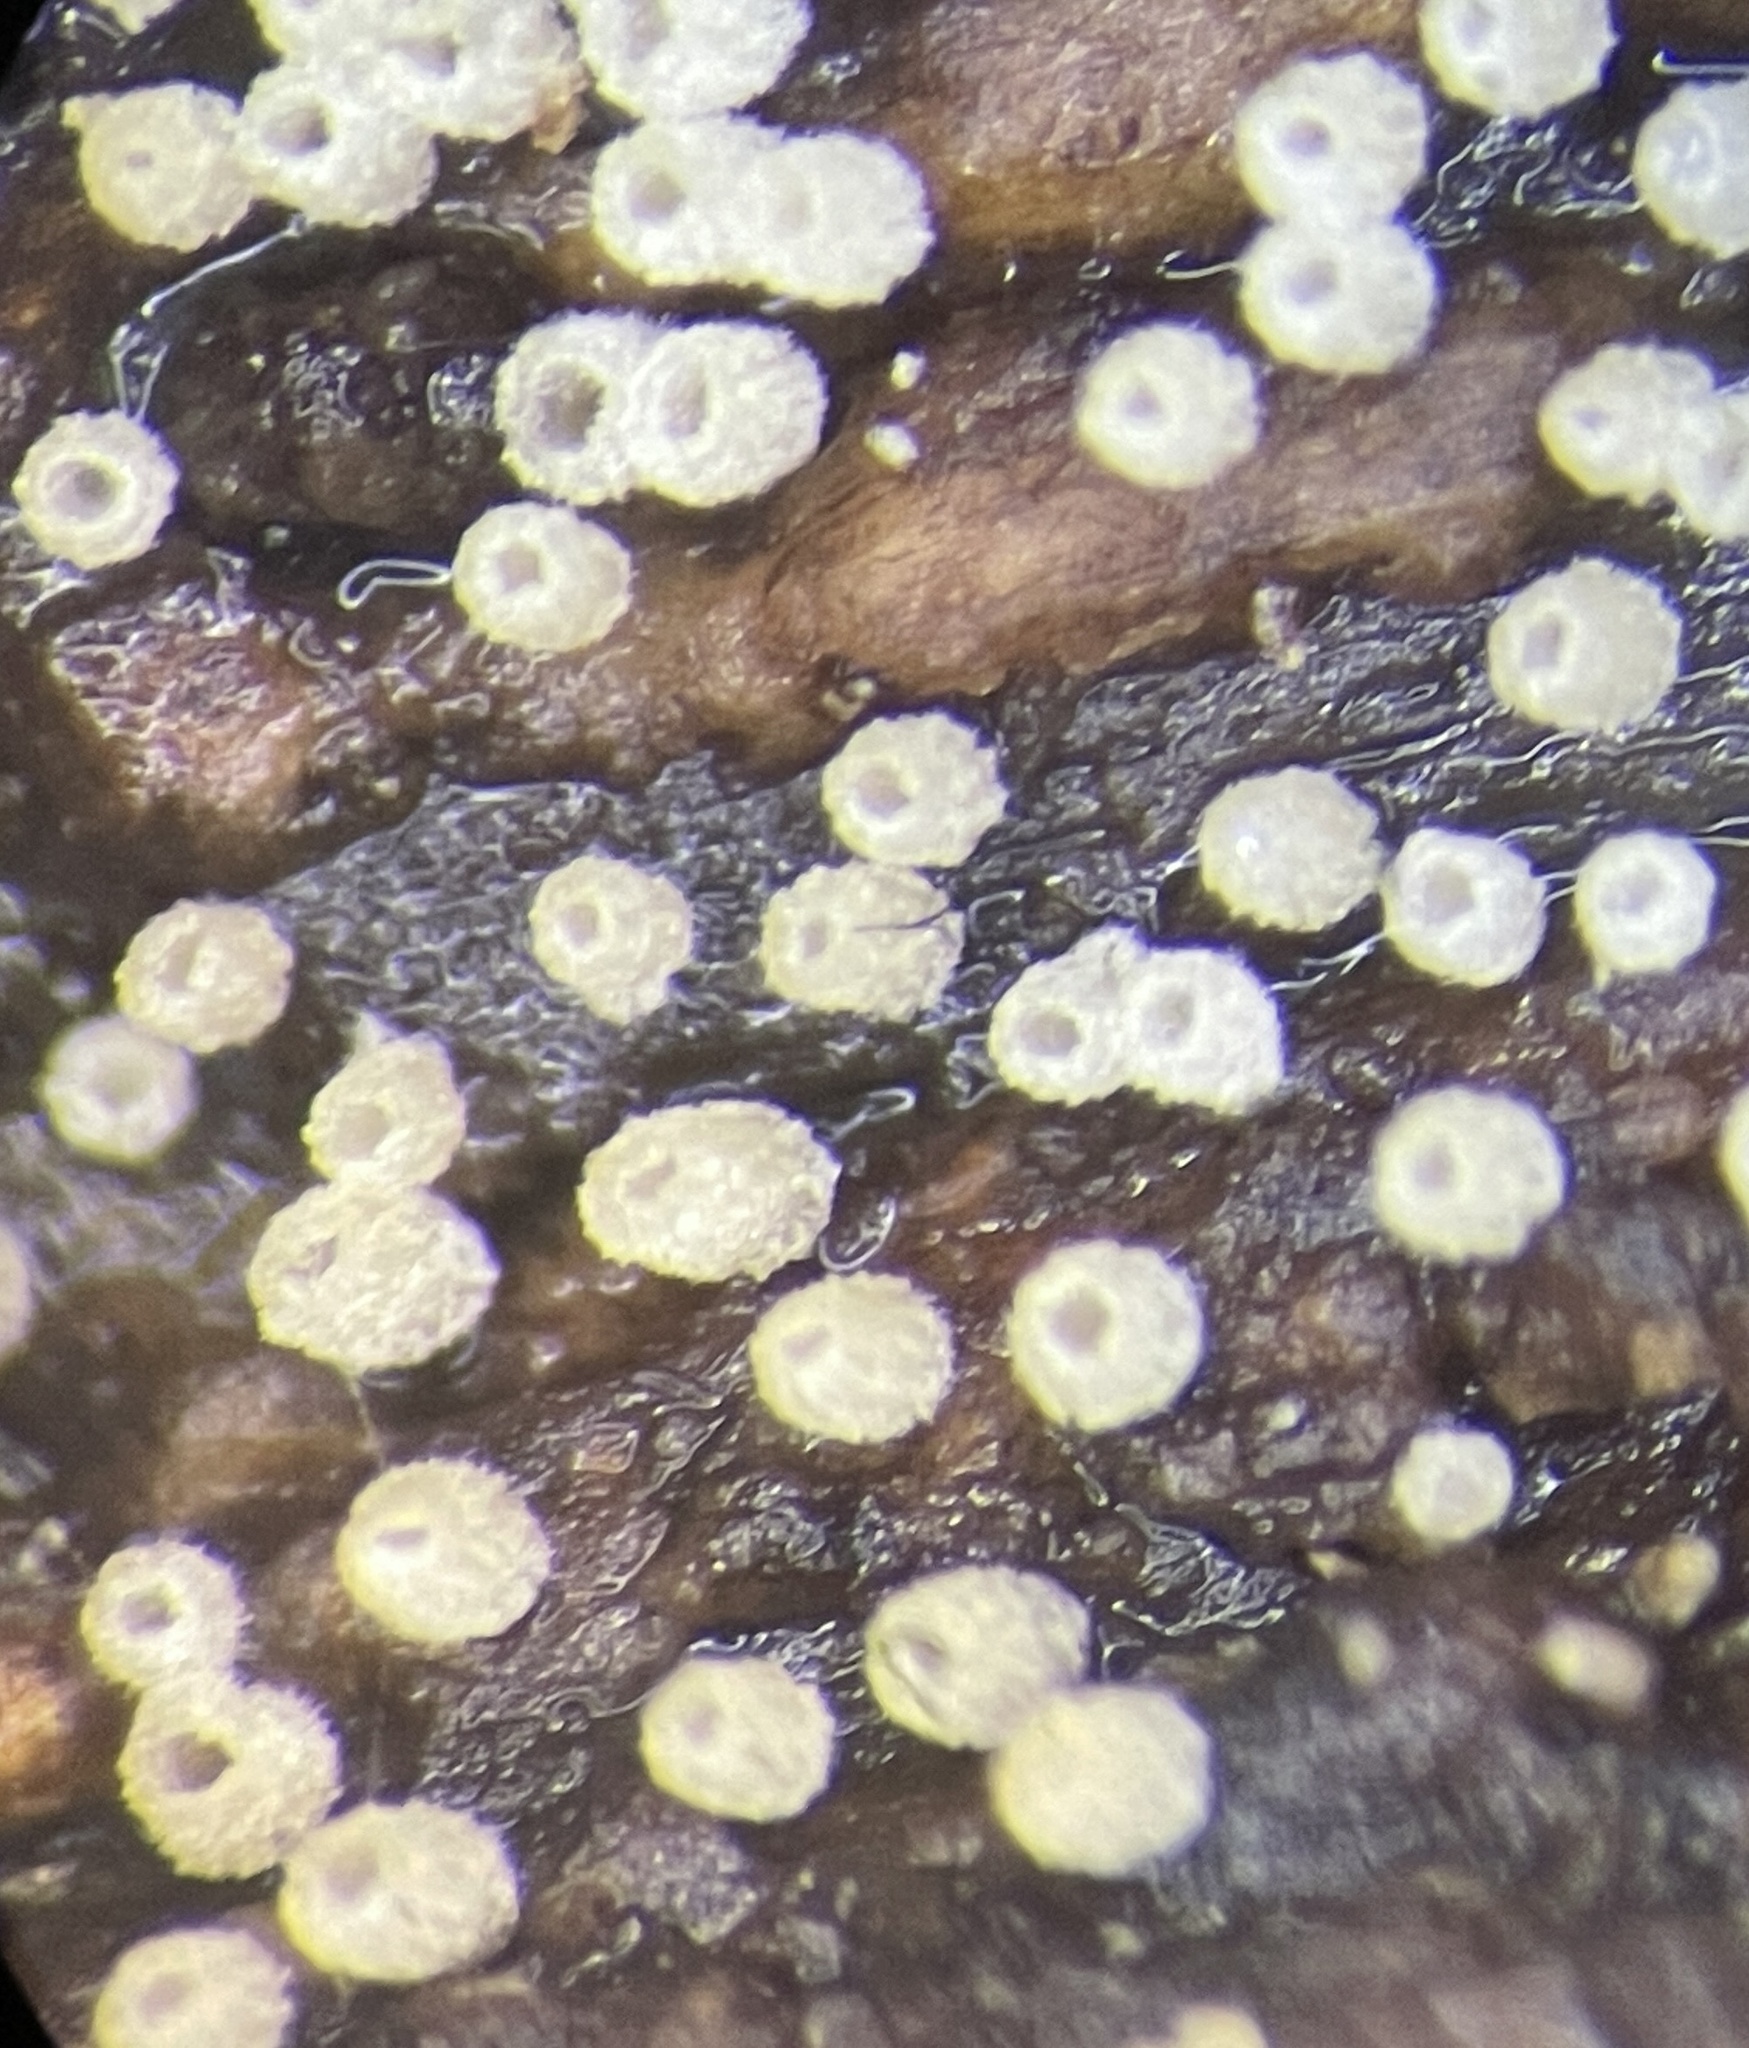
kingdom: Fungi
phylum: Basidiomycota
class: Agaricomycetes
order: Agaricales
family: Marasmiaceae
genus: Henningsomyces
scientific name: Henningsomyces candidus
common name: White tubelet
